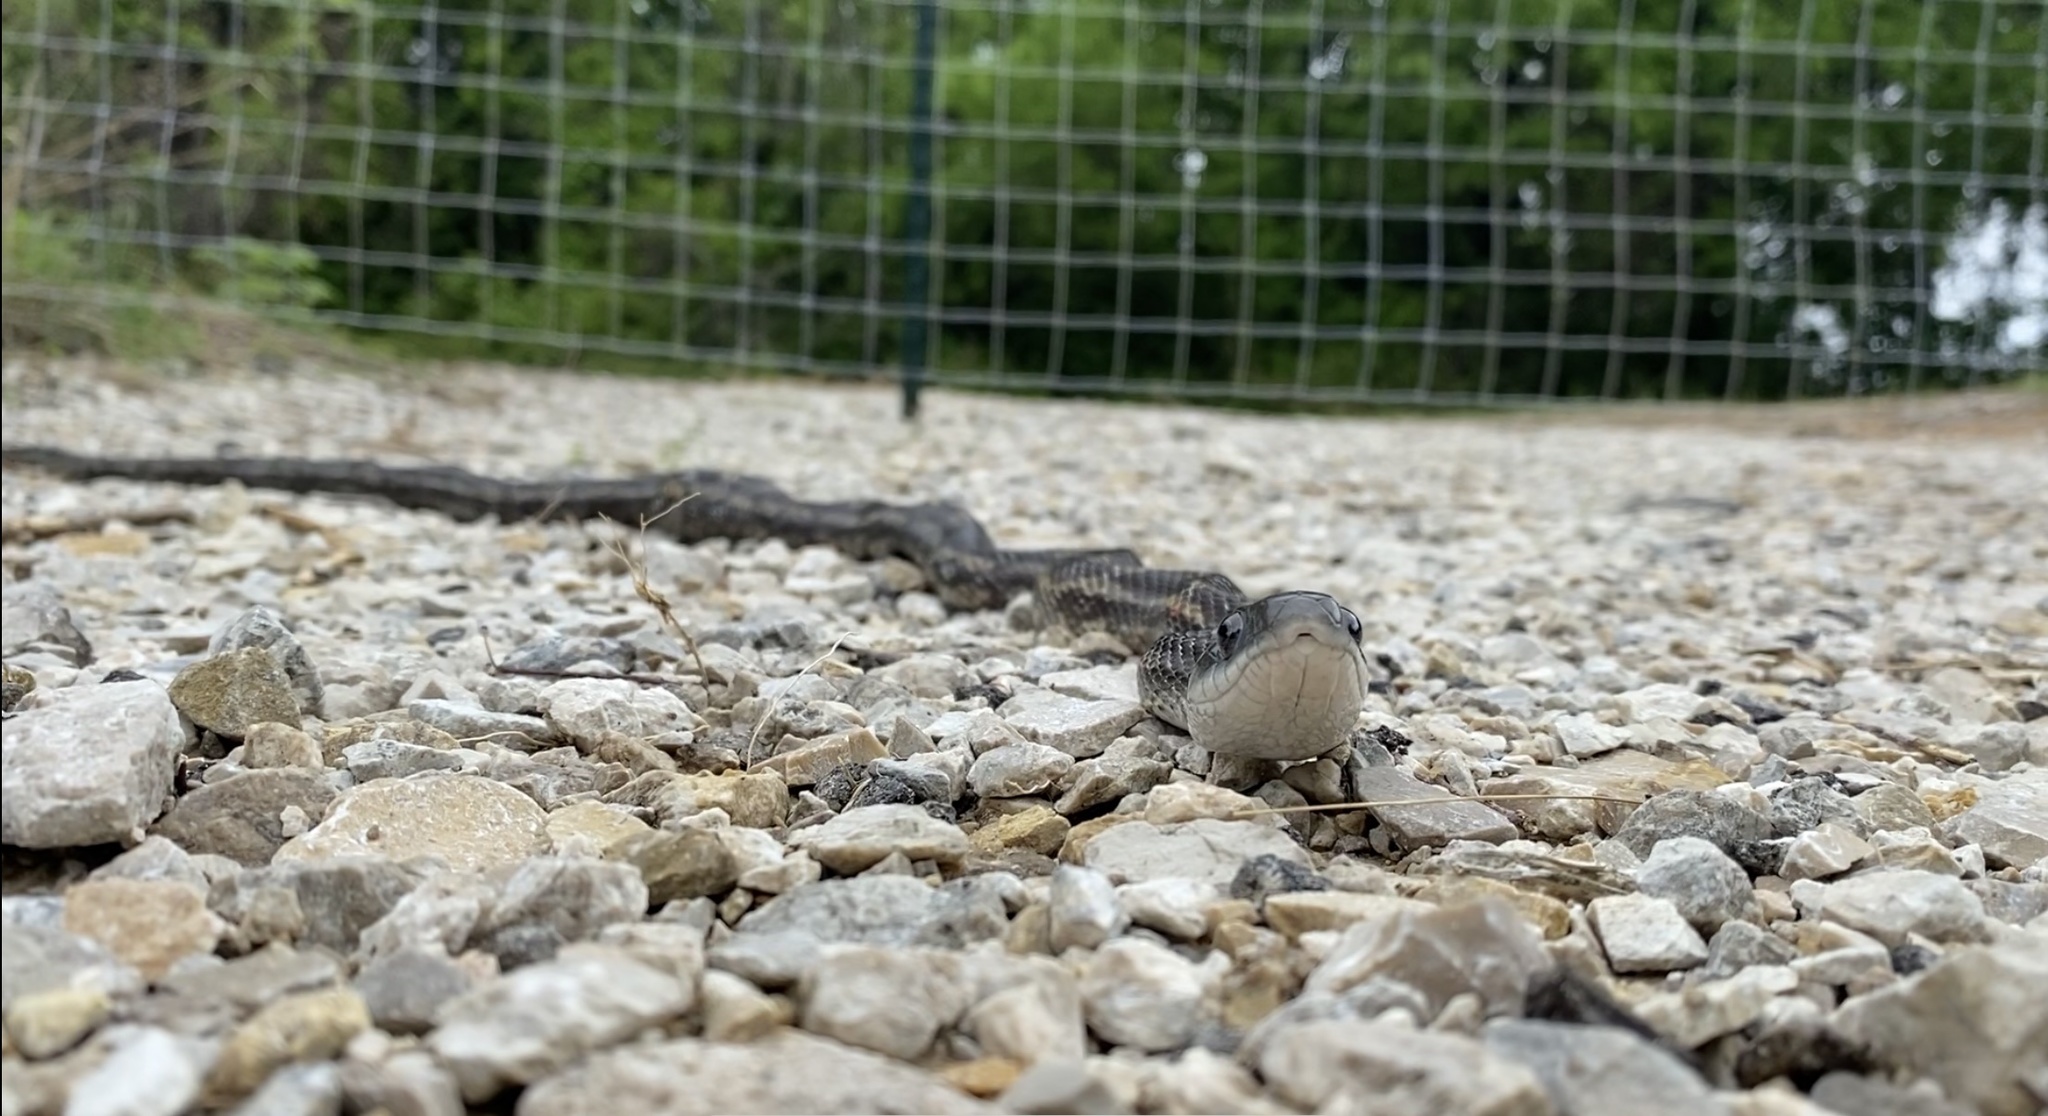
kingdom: Animalia
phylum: Chordata
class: Squamata
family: Colubridae
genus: Pantherophis
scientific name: Pantherophis obsoletus
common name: Black rat snake
